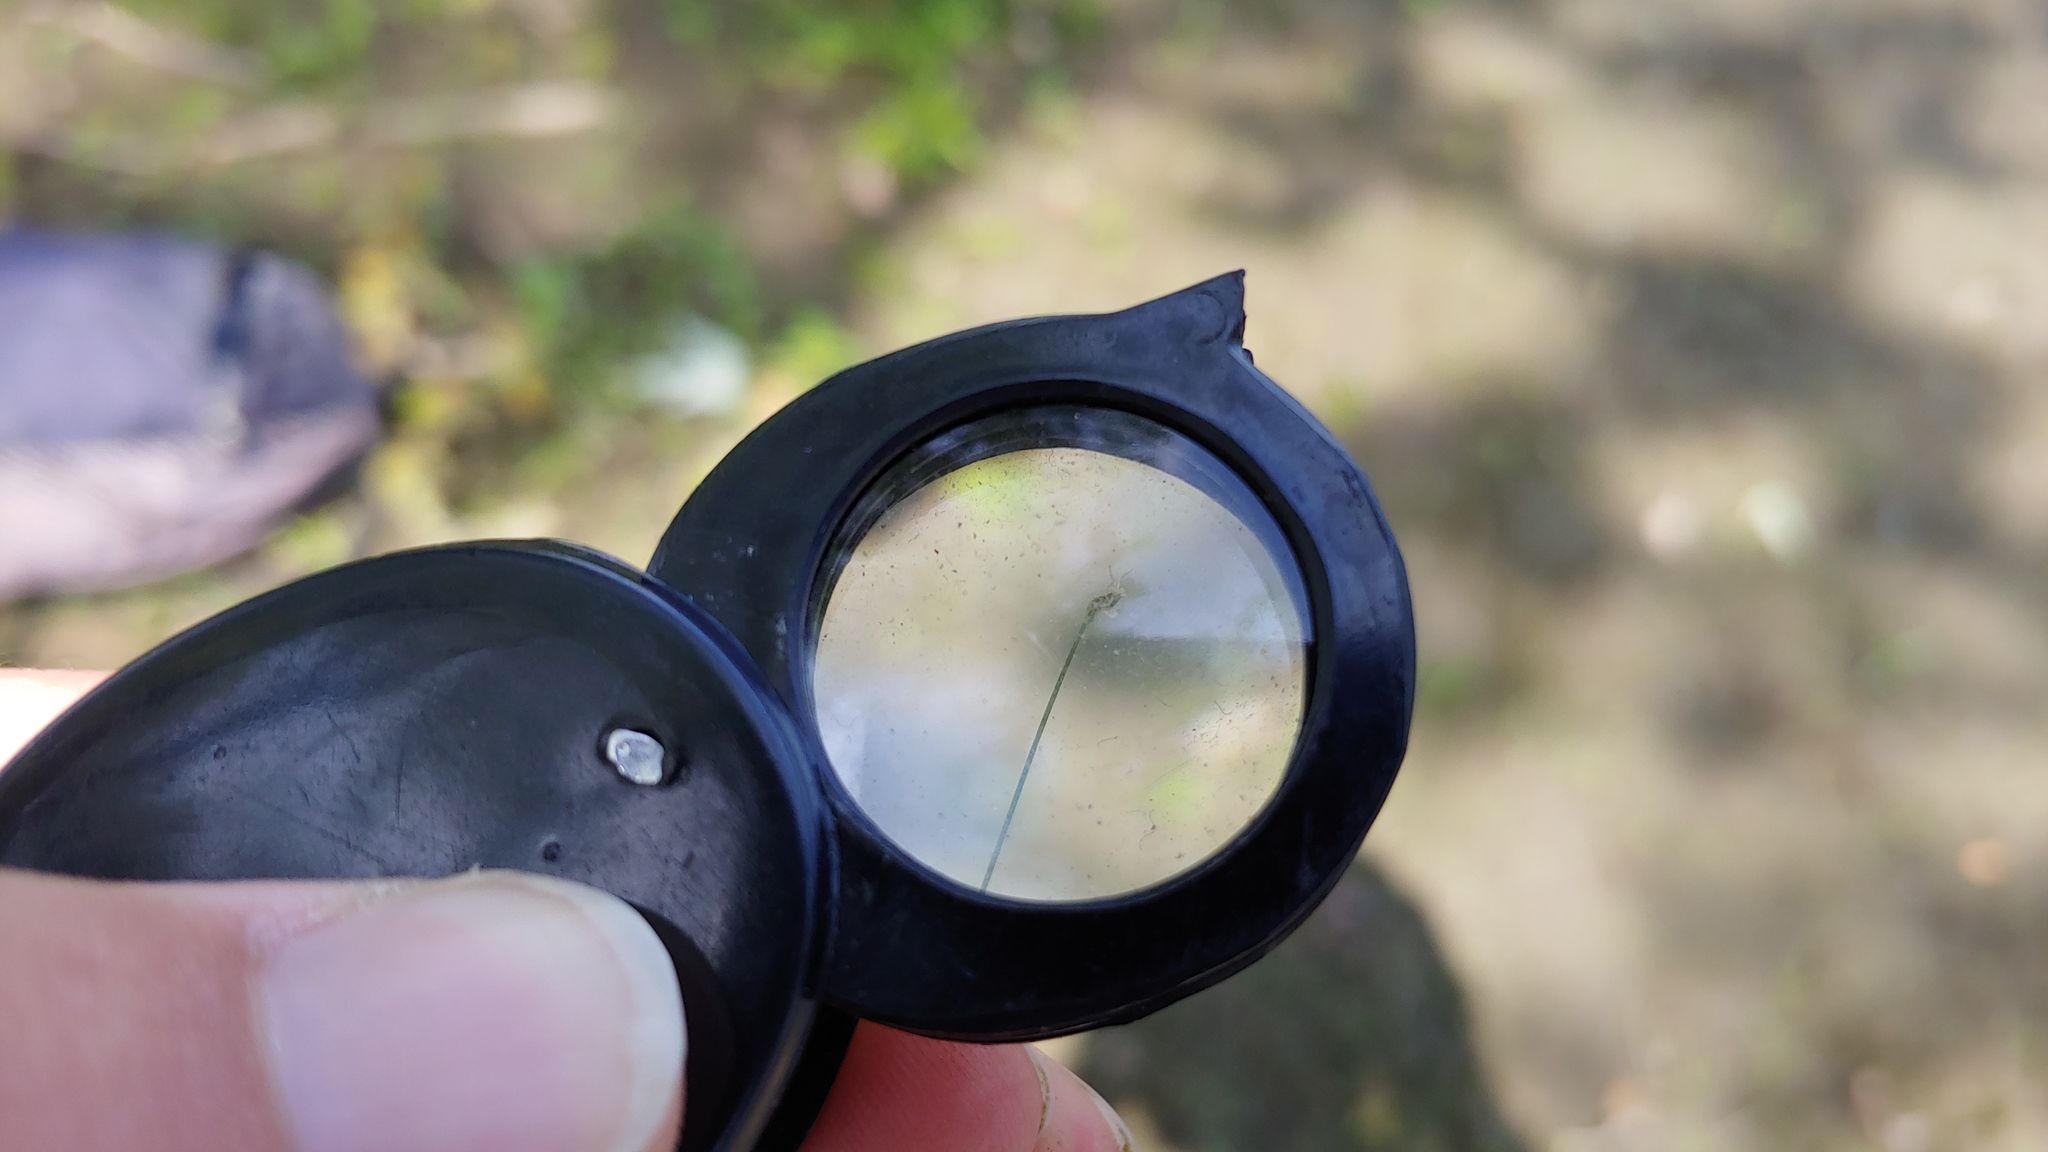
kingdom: Plantae
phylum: Tracheophyta
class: Liliopsida
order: Poales
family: Cyperaceae
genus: Eleocharis
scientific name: Eleocharis acicularis
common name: Needle spike-rush
